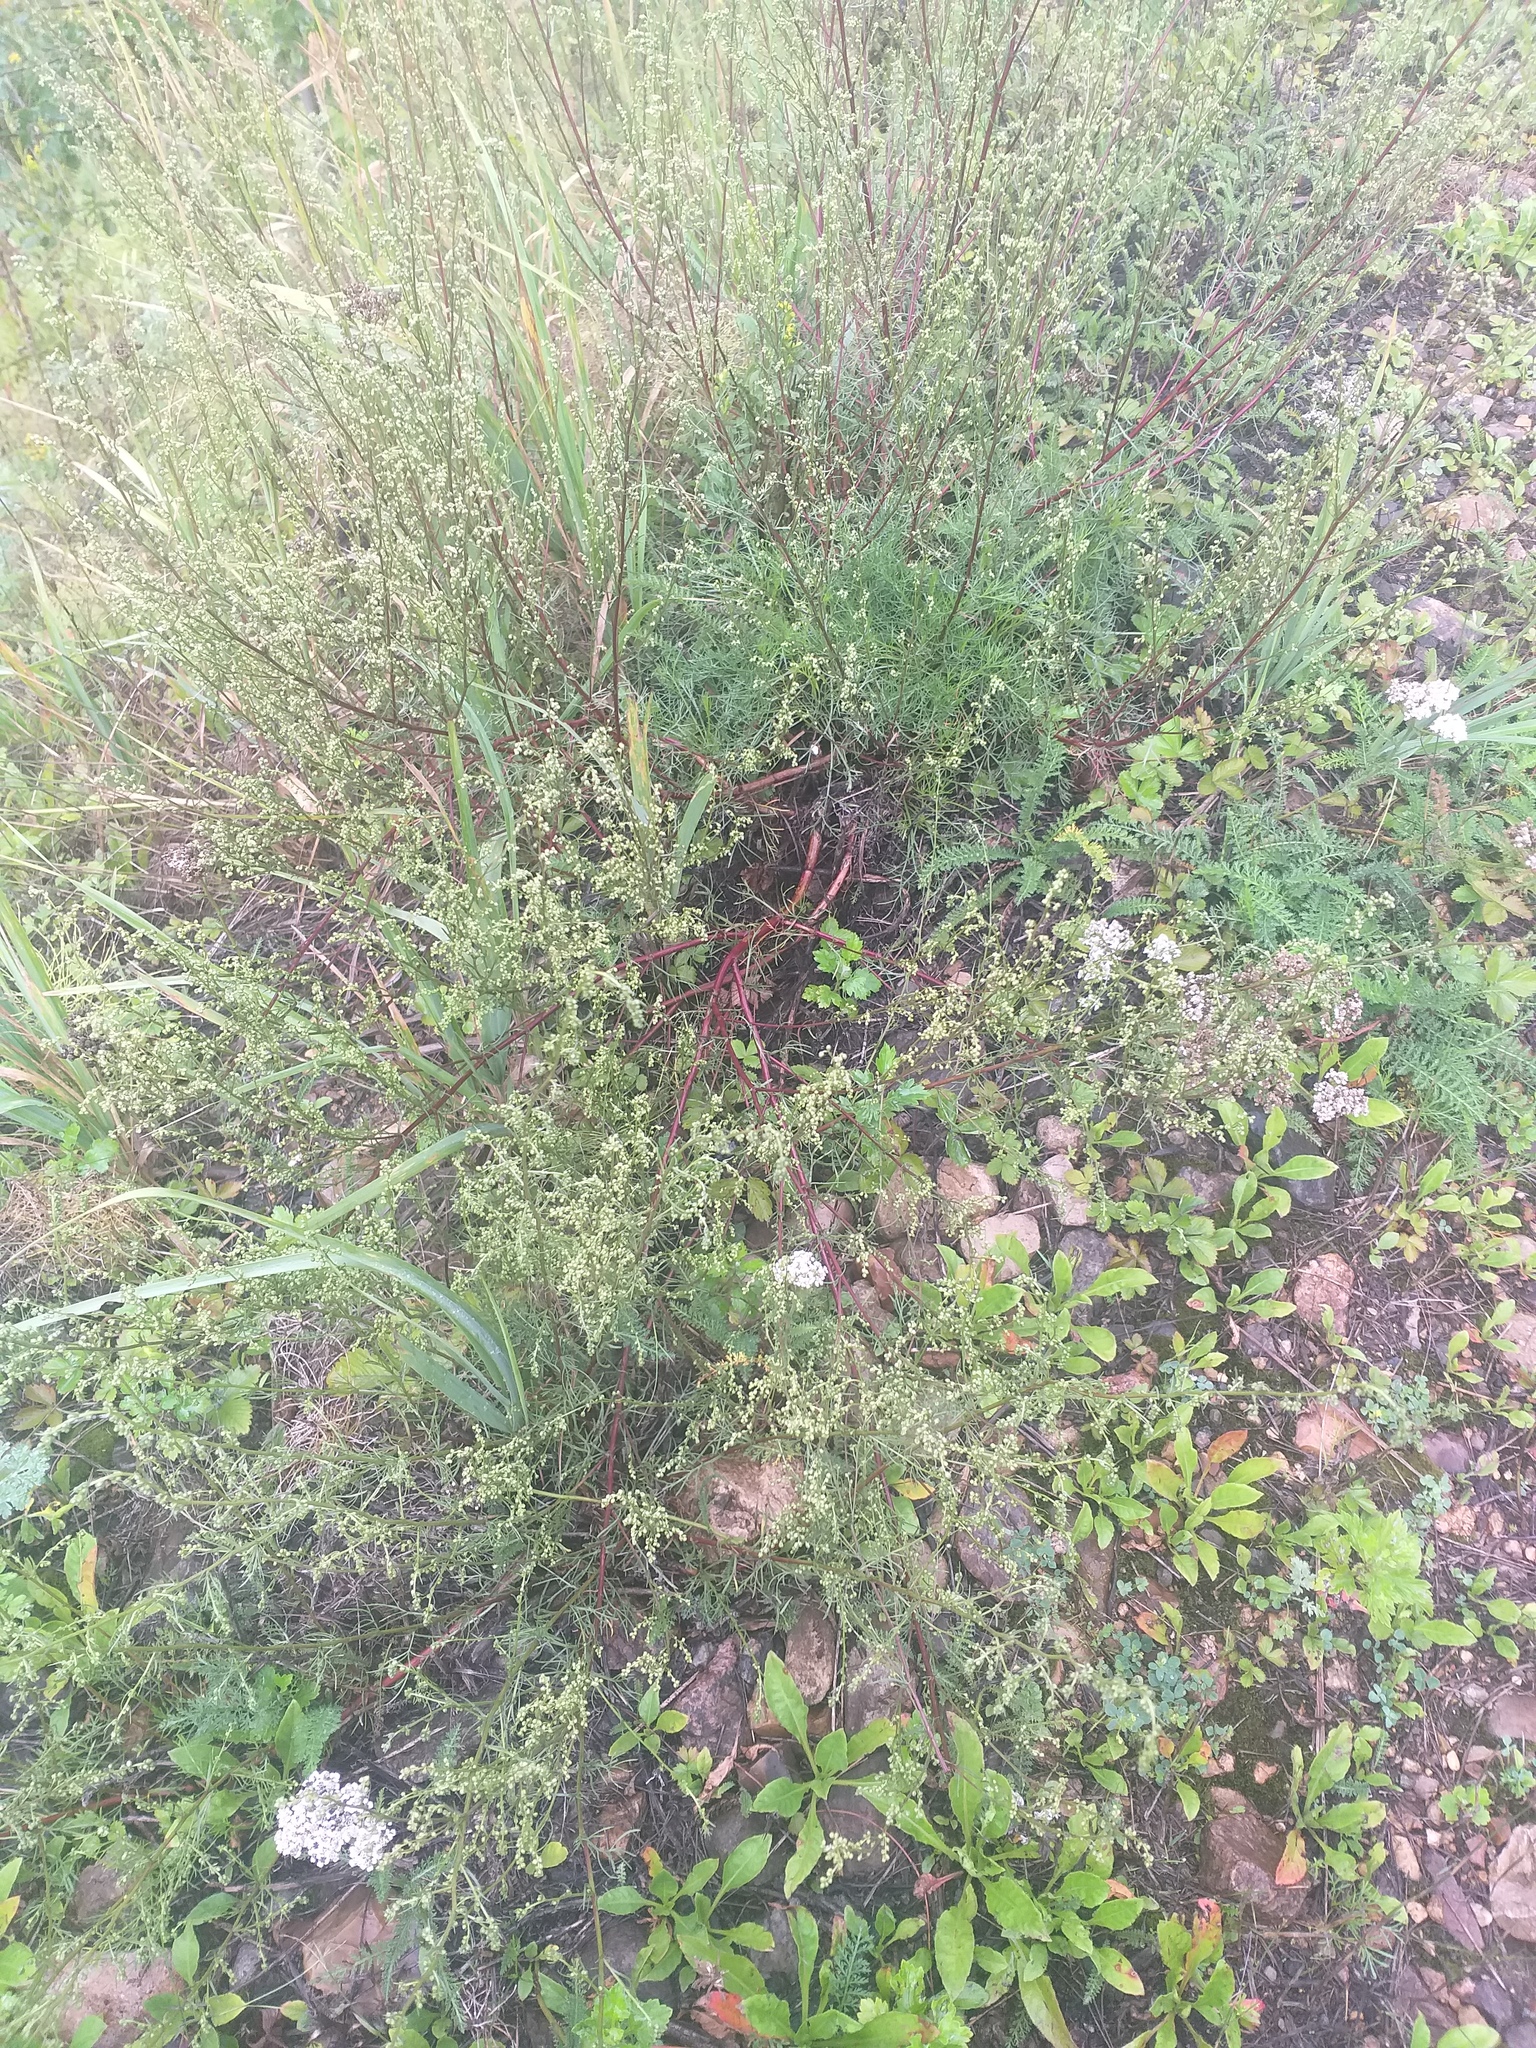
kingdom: Plantae
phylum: Tracheophyta
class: Magnoliopsida
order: Asterales
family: Asteraceae
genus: Artemisia
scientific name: Artemisia campestris
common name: Field wormwood
